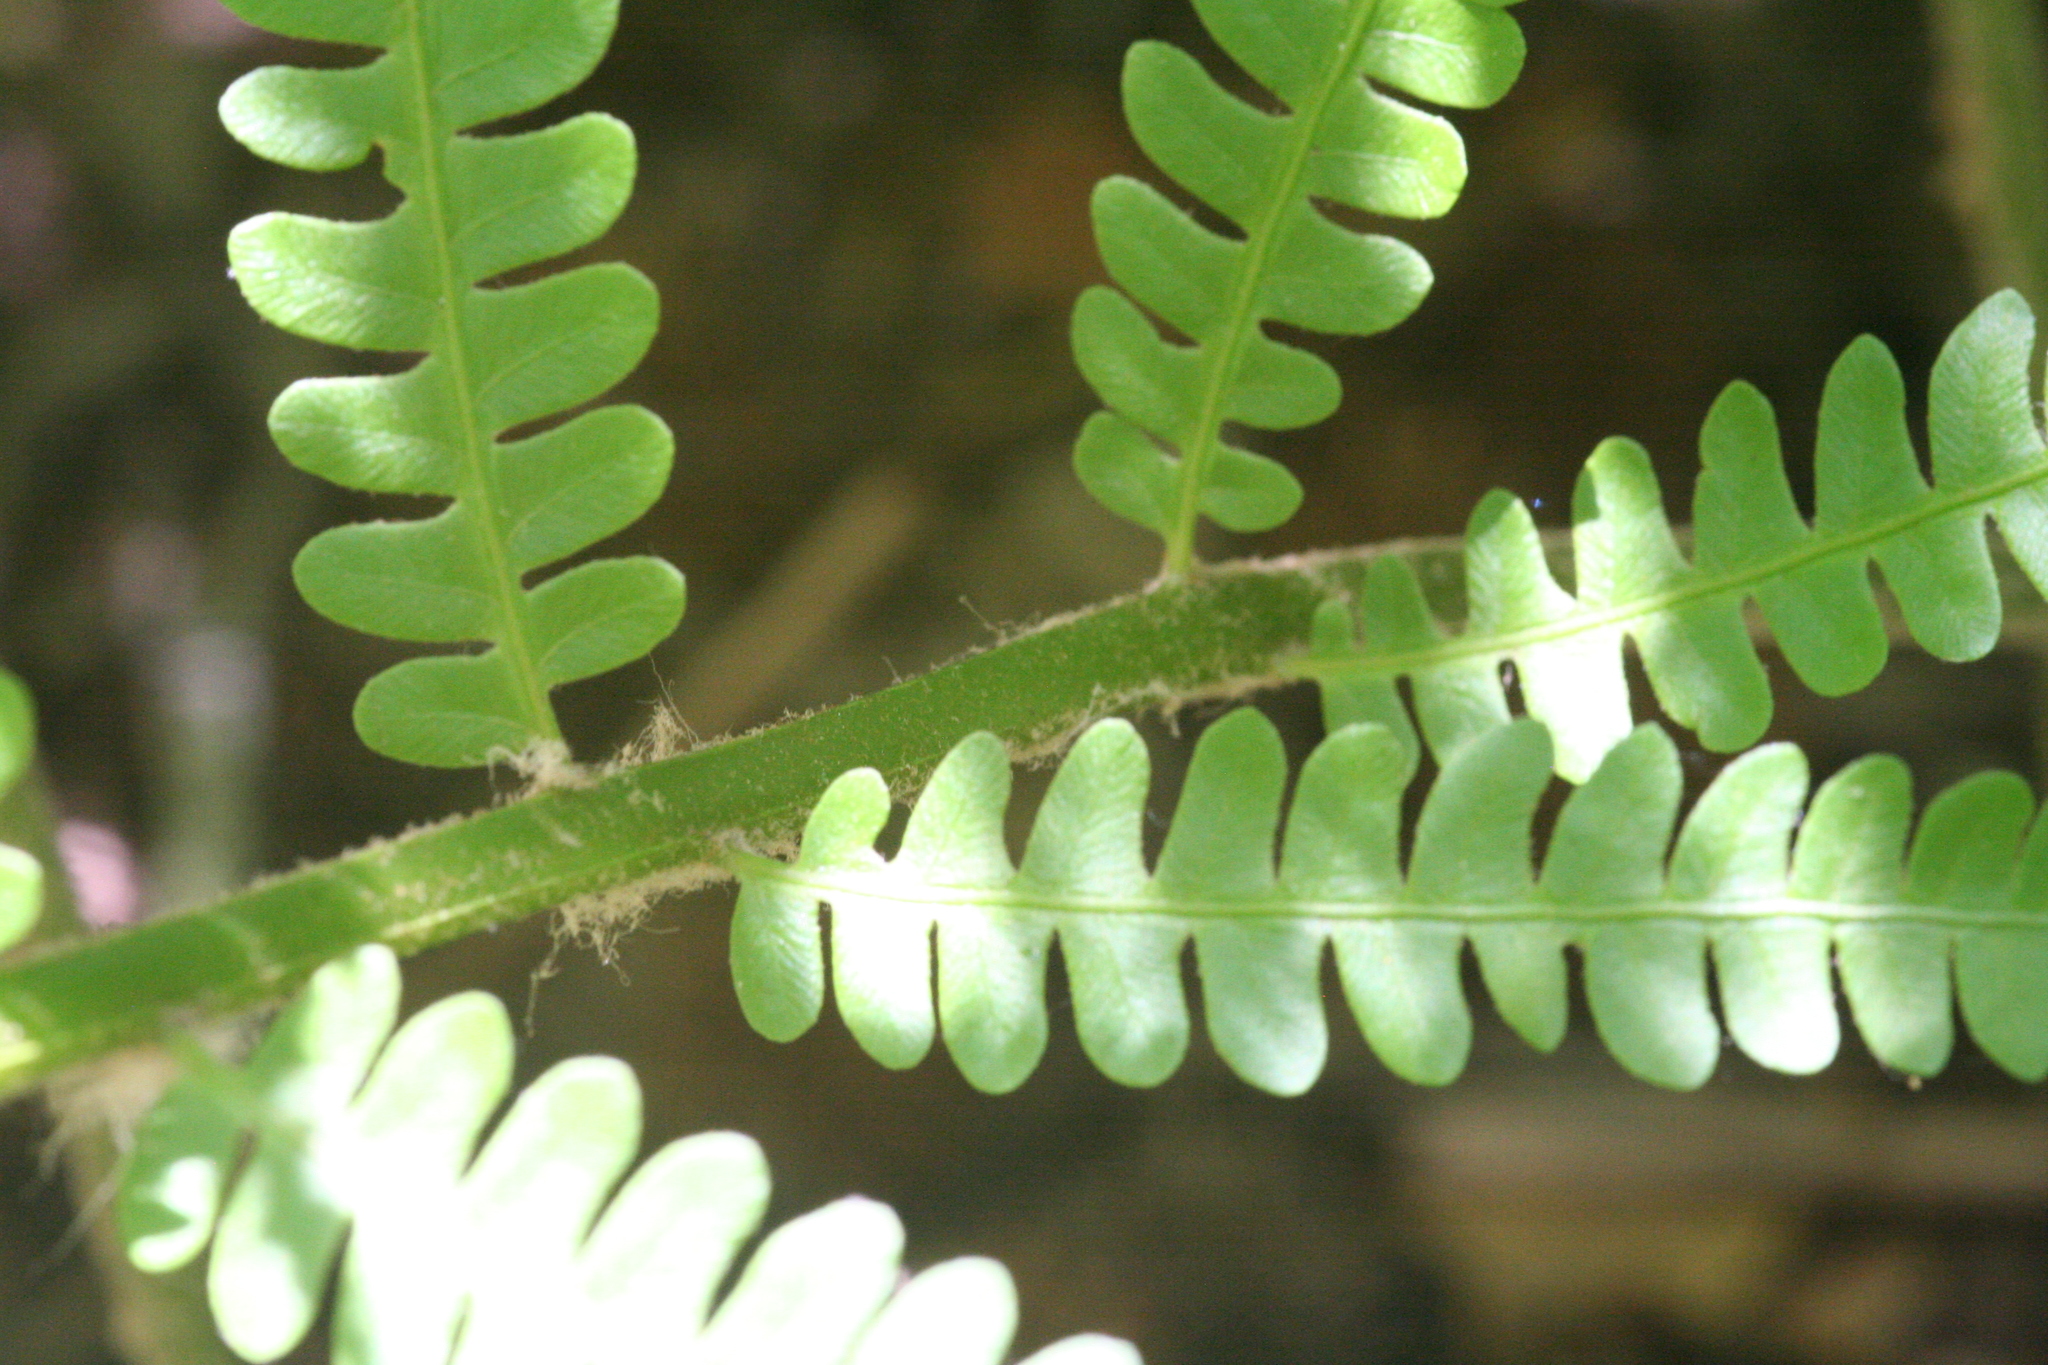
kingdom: Plantae
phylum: Tracheophyta
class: Polypodiopsida
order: Osmundales
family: Osmundaceae
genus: Osmundastrum
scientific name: Osmundastrum cinnamomeum
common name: Cinnamon fern
